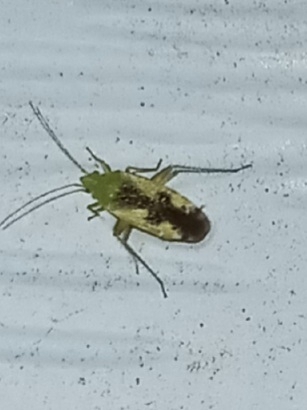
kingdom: Animalia
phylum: Arthropoda
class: Insecta
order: Hemiptera
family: Miridae
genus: Reuteroscopus
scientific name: Reuteroscopus ornatus
